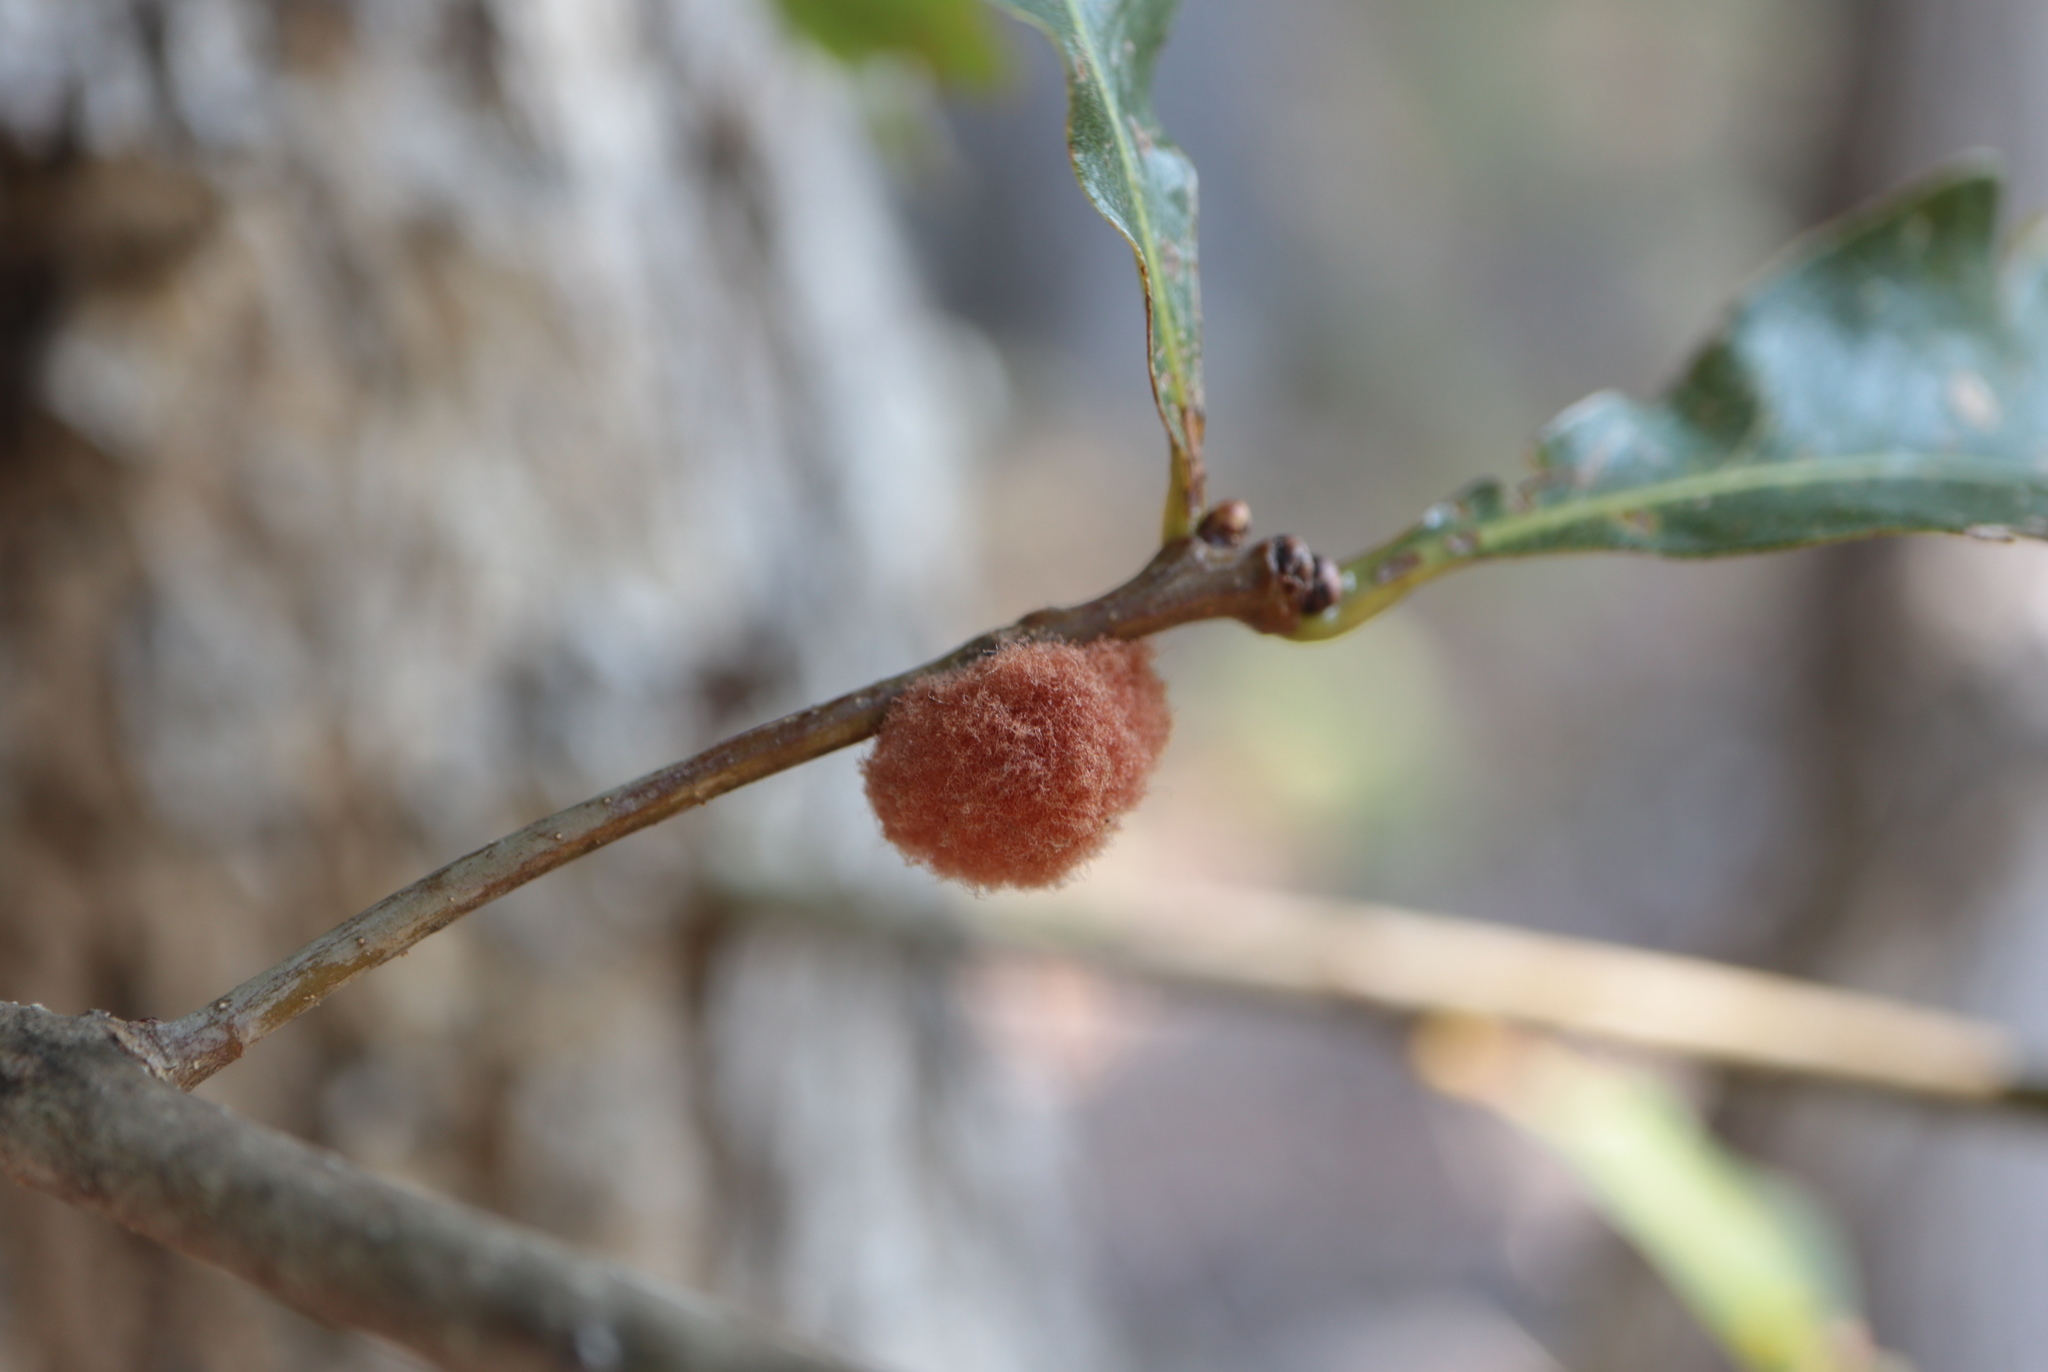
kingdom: Animalia
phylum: Arthropoda
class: Insecta
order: Hymenoptera
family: Cynipidae
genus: Andricus
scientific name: Andricus quercusflocci
